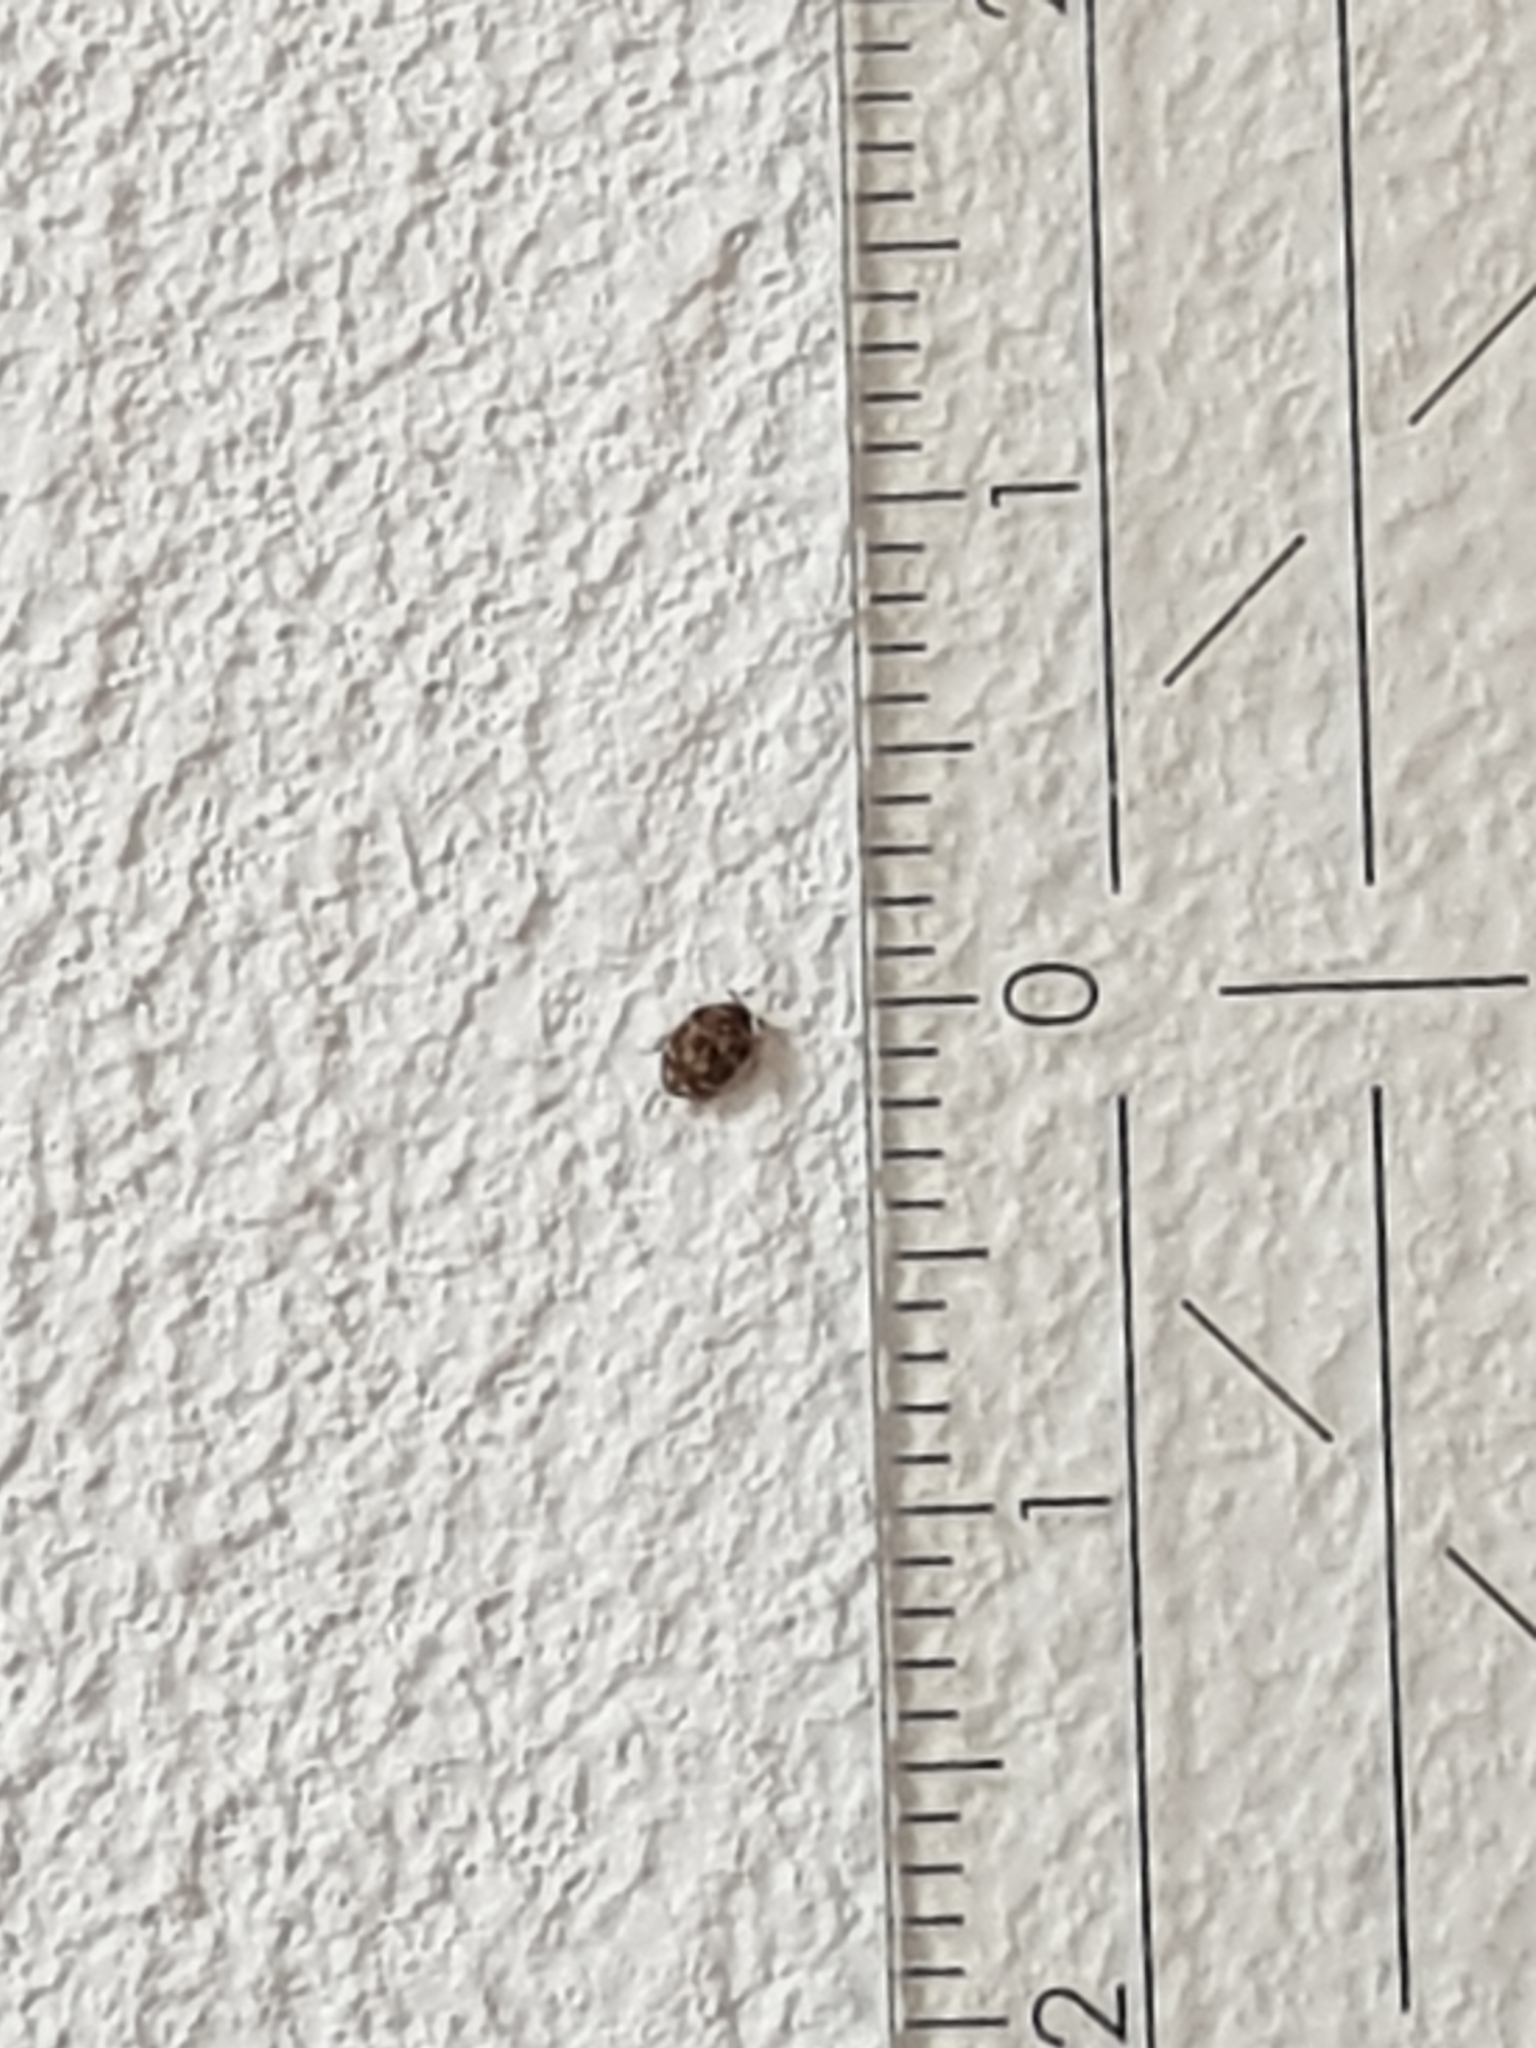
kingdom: Animalia
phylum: Arthropoda
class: Insecta
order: Coleoptera
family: Dermestidae
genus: Anthrenus
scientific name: Anthrenus verbasci
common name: Varied carpet beetle
